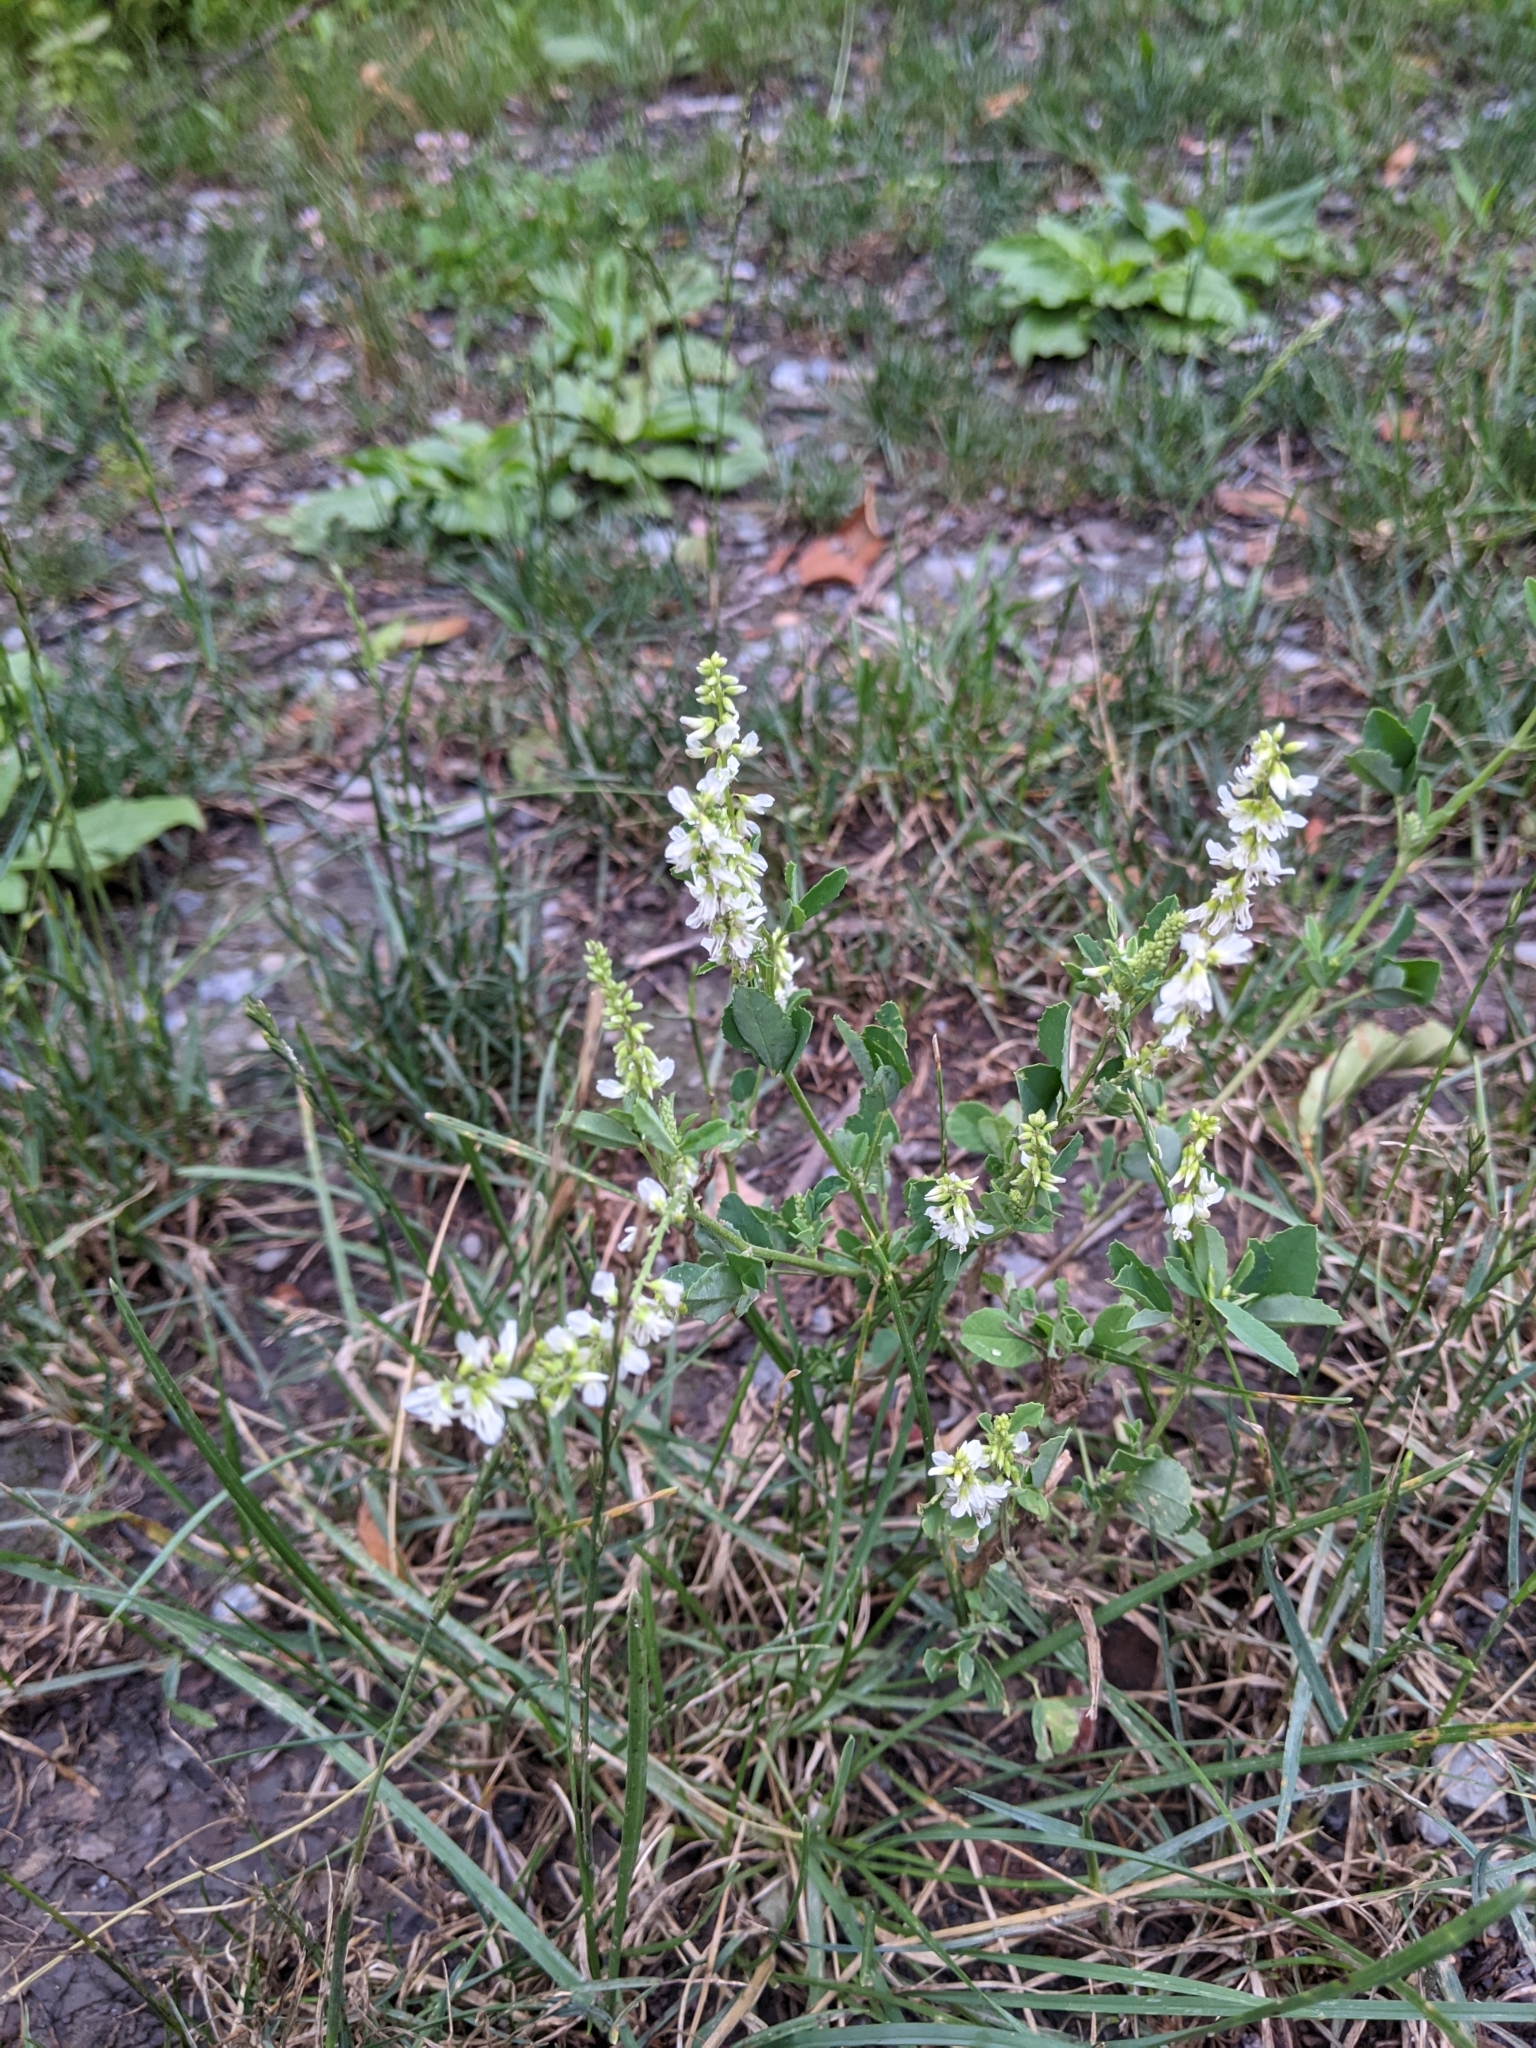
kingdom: Plantae
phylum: Tracheophyta
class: Magnoliopsida
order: Fabales
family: Fabaceae
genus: Melilotus
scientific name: Melilotus albus
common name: White melilot
